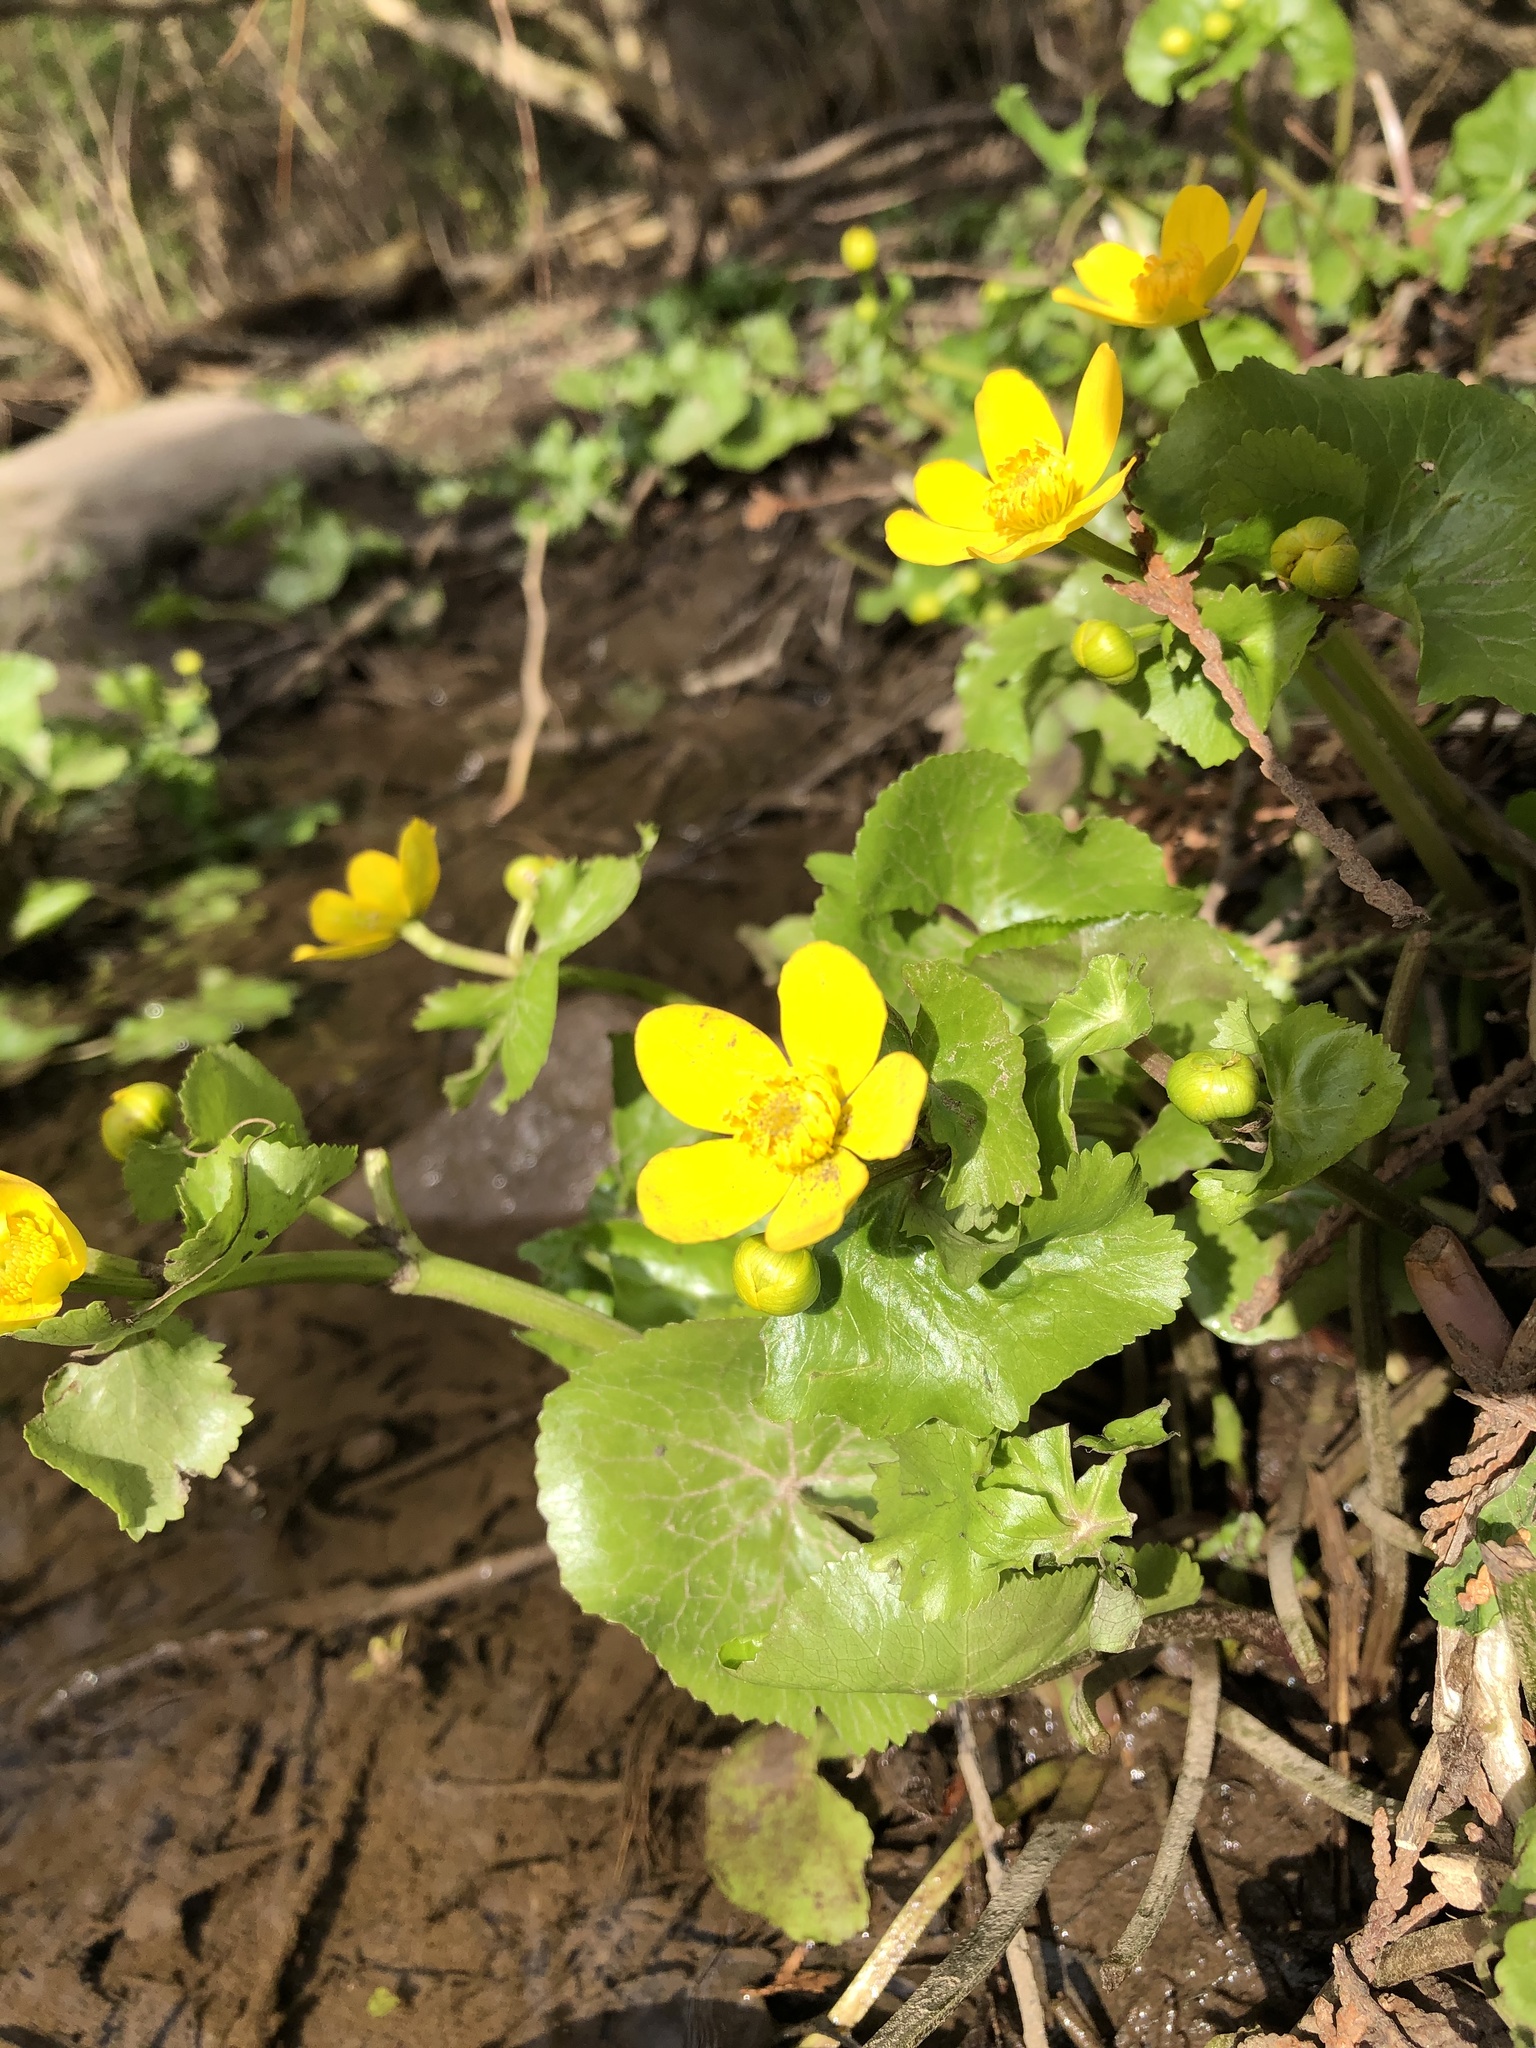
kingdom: Plantae
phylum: Tracheophyta
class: Magnoliopsida
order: Ranunculales
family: Ranunculaceae
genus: Caltha
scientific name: Caltha palustris
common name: Marsh marigold
